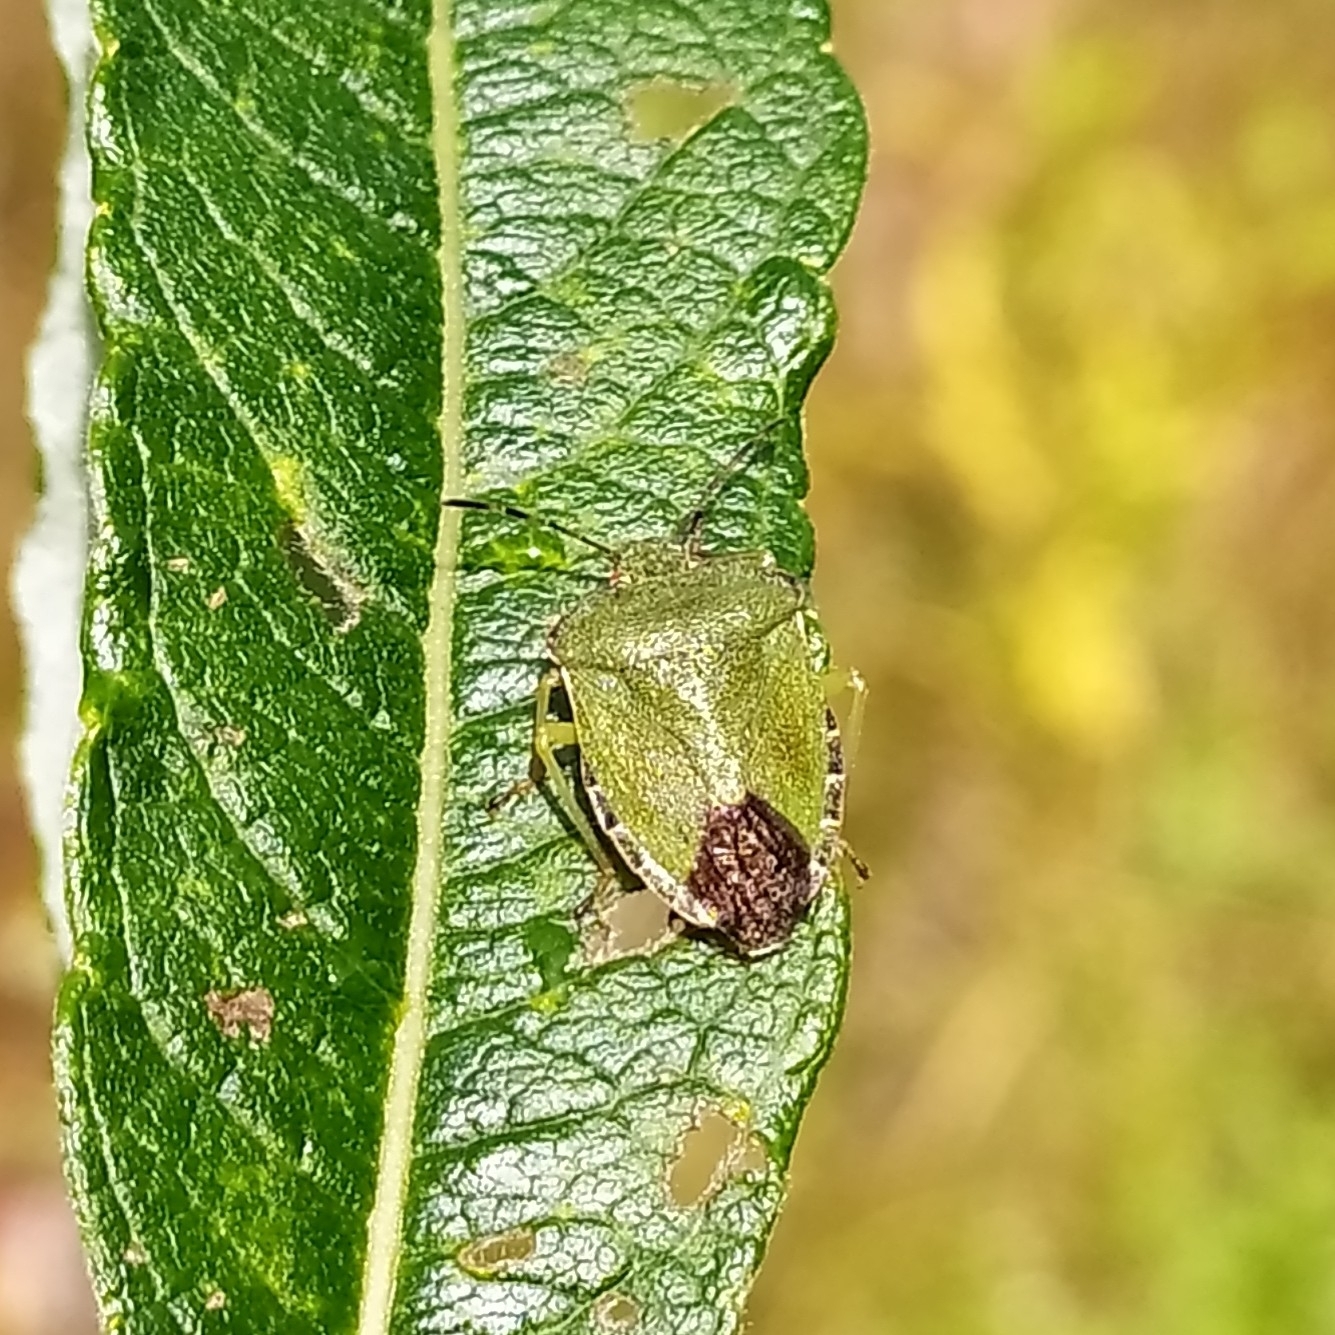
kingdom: Animalia
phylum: Arthropoda
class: Insecta
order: Hemiptera
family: Pentatomidae
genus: Palomena
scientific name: Palomena prasina
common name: Green shieldbug
